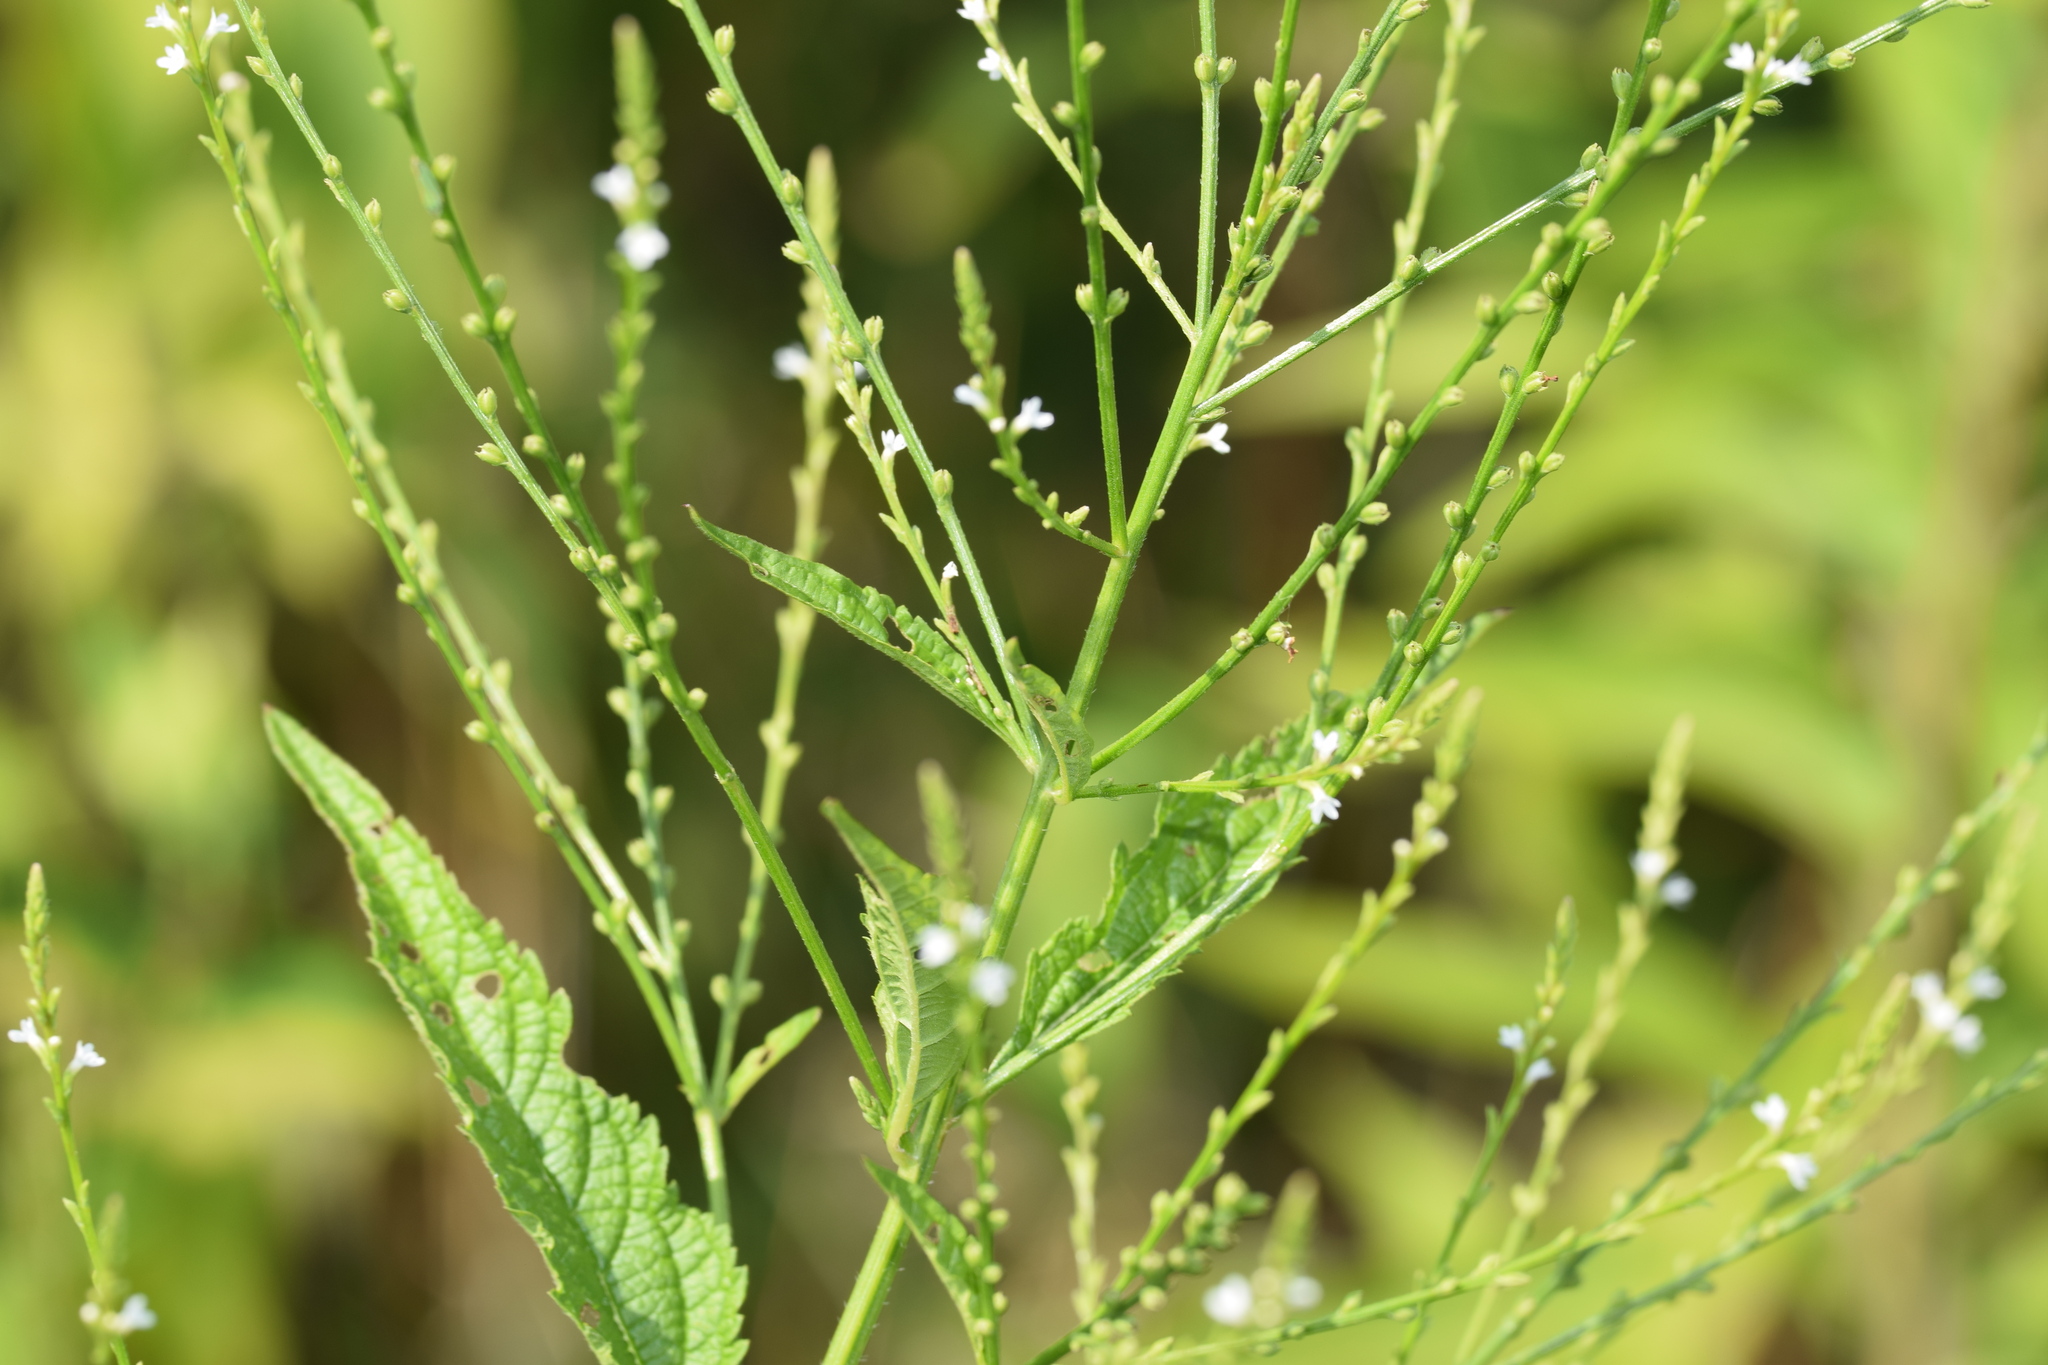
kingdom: Plantae
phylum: Tracheophyta
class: Magnoliopsida
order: Lamiales
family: Verbenaceae
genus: Verbena
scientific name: Verbena urticifolia
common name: Nettle-leaved vervain
